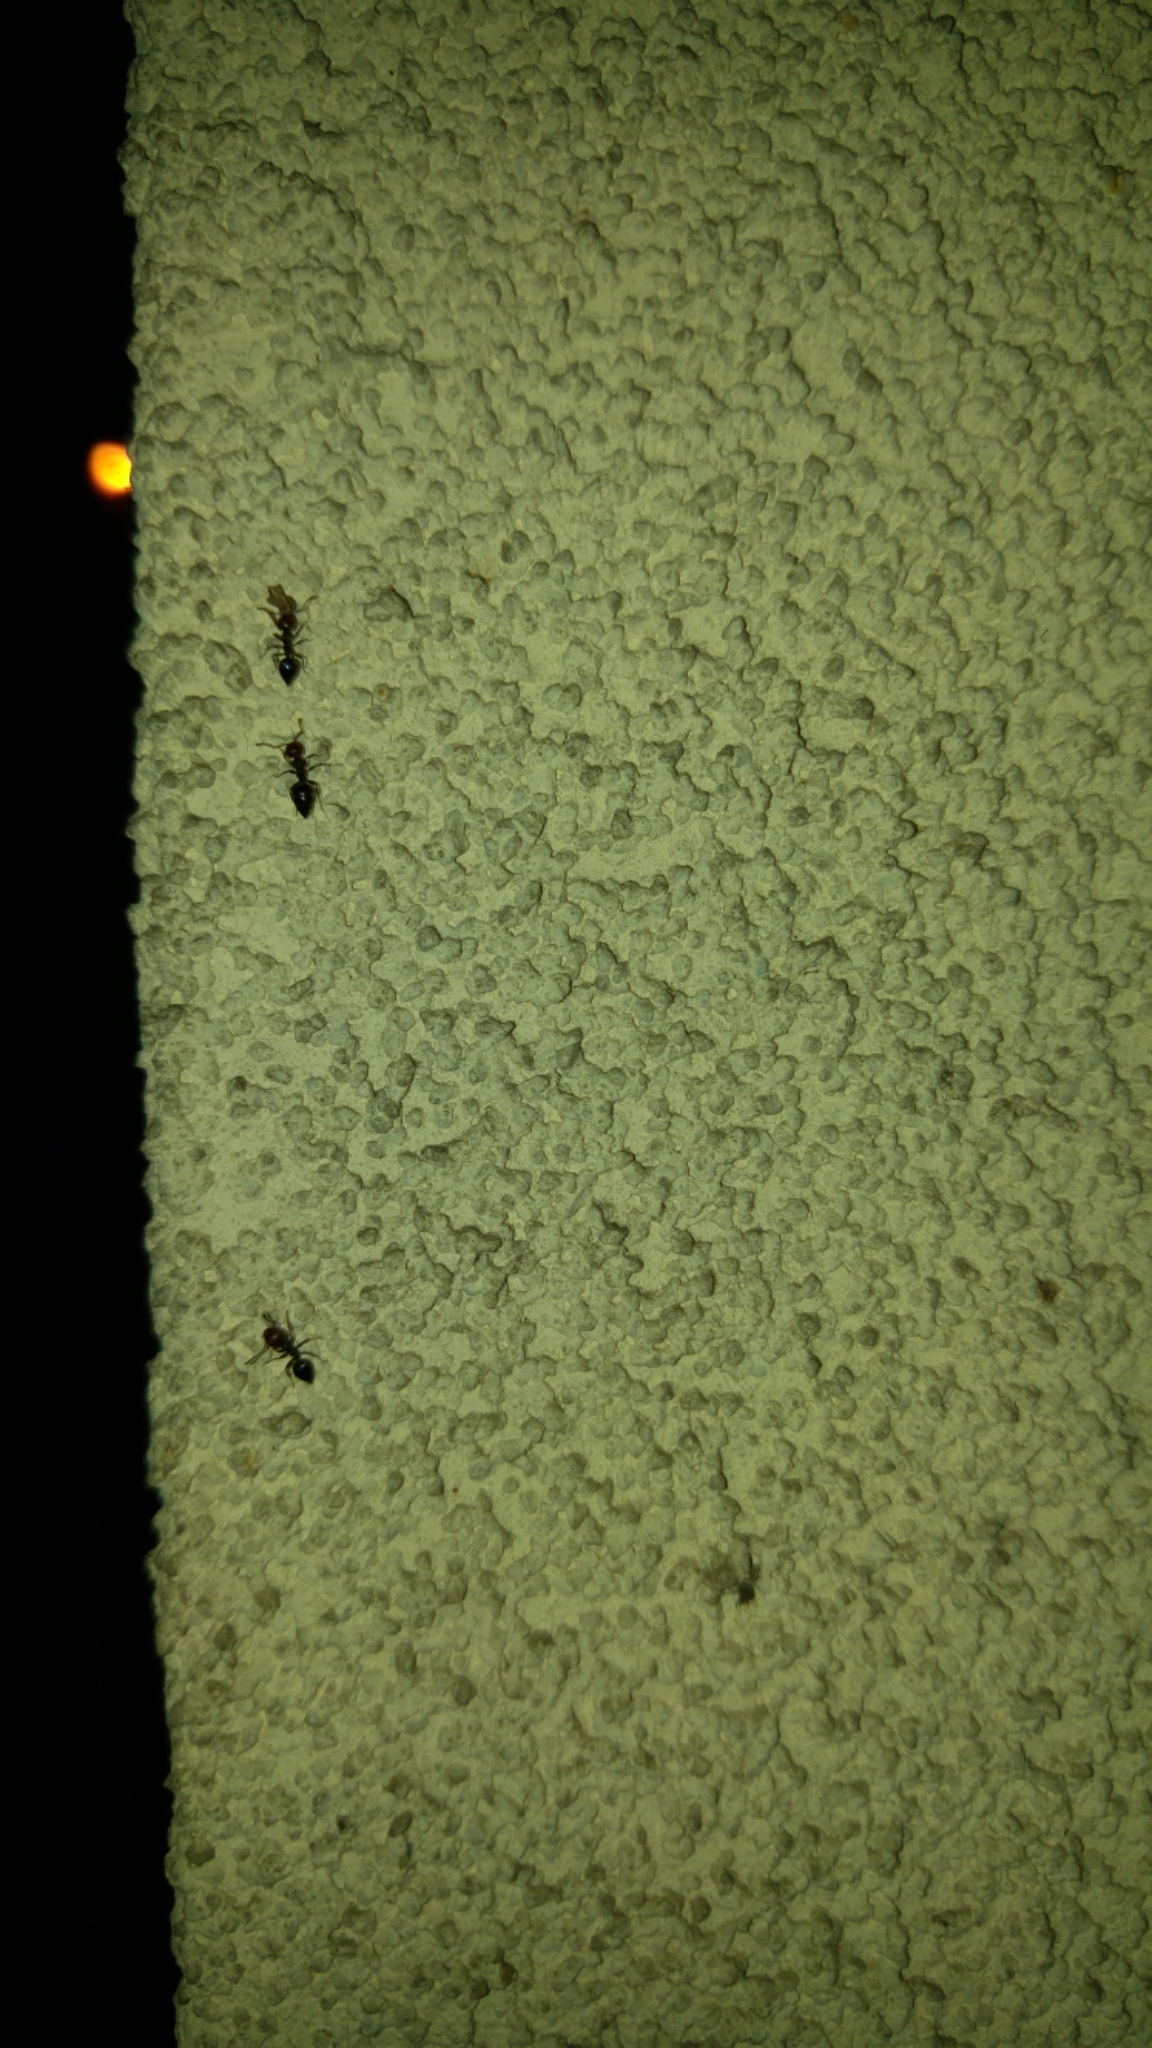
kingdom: Animalia
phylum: Arthropoda
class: Insecta
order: Hymenoptera
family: Formicidae
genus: Crematogaster
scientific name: Crematogaster scutellaris
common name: Fourmi du liège
